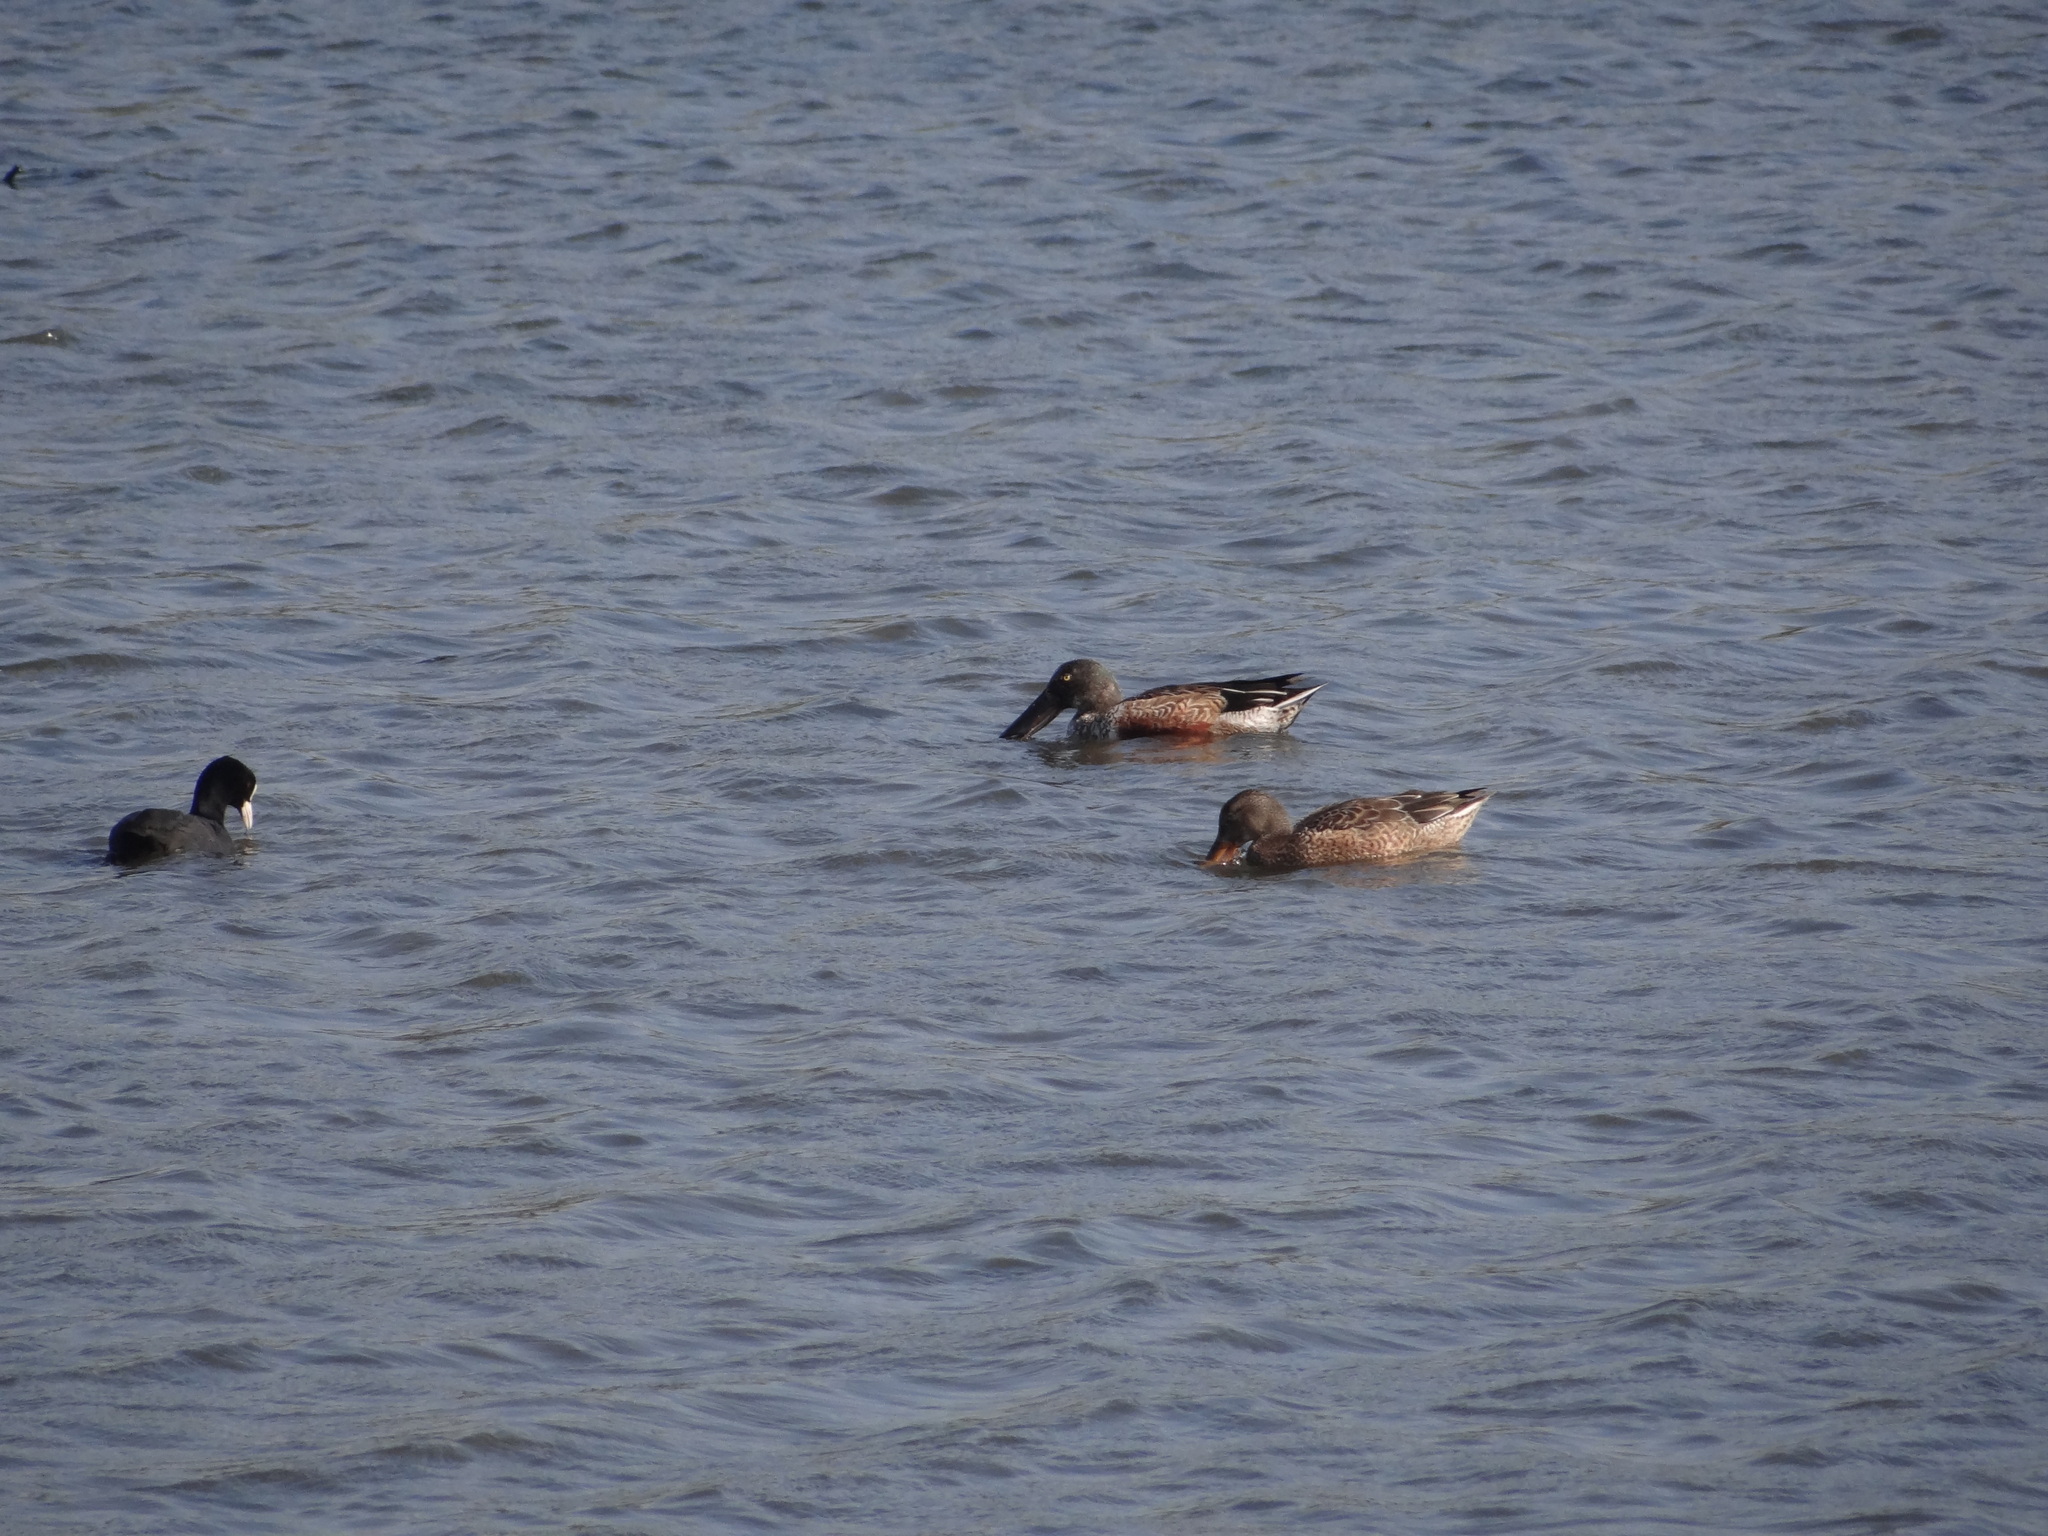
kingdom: Animalia
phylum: Chordata
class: Aves
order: Anseriformes
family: Anatidae
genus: Spatula
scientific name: Spatula clypeata
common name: Northern shoveler
